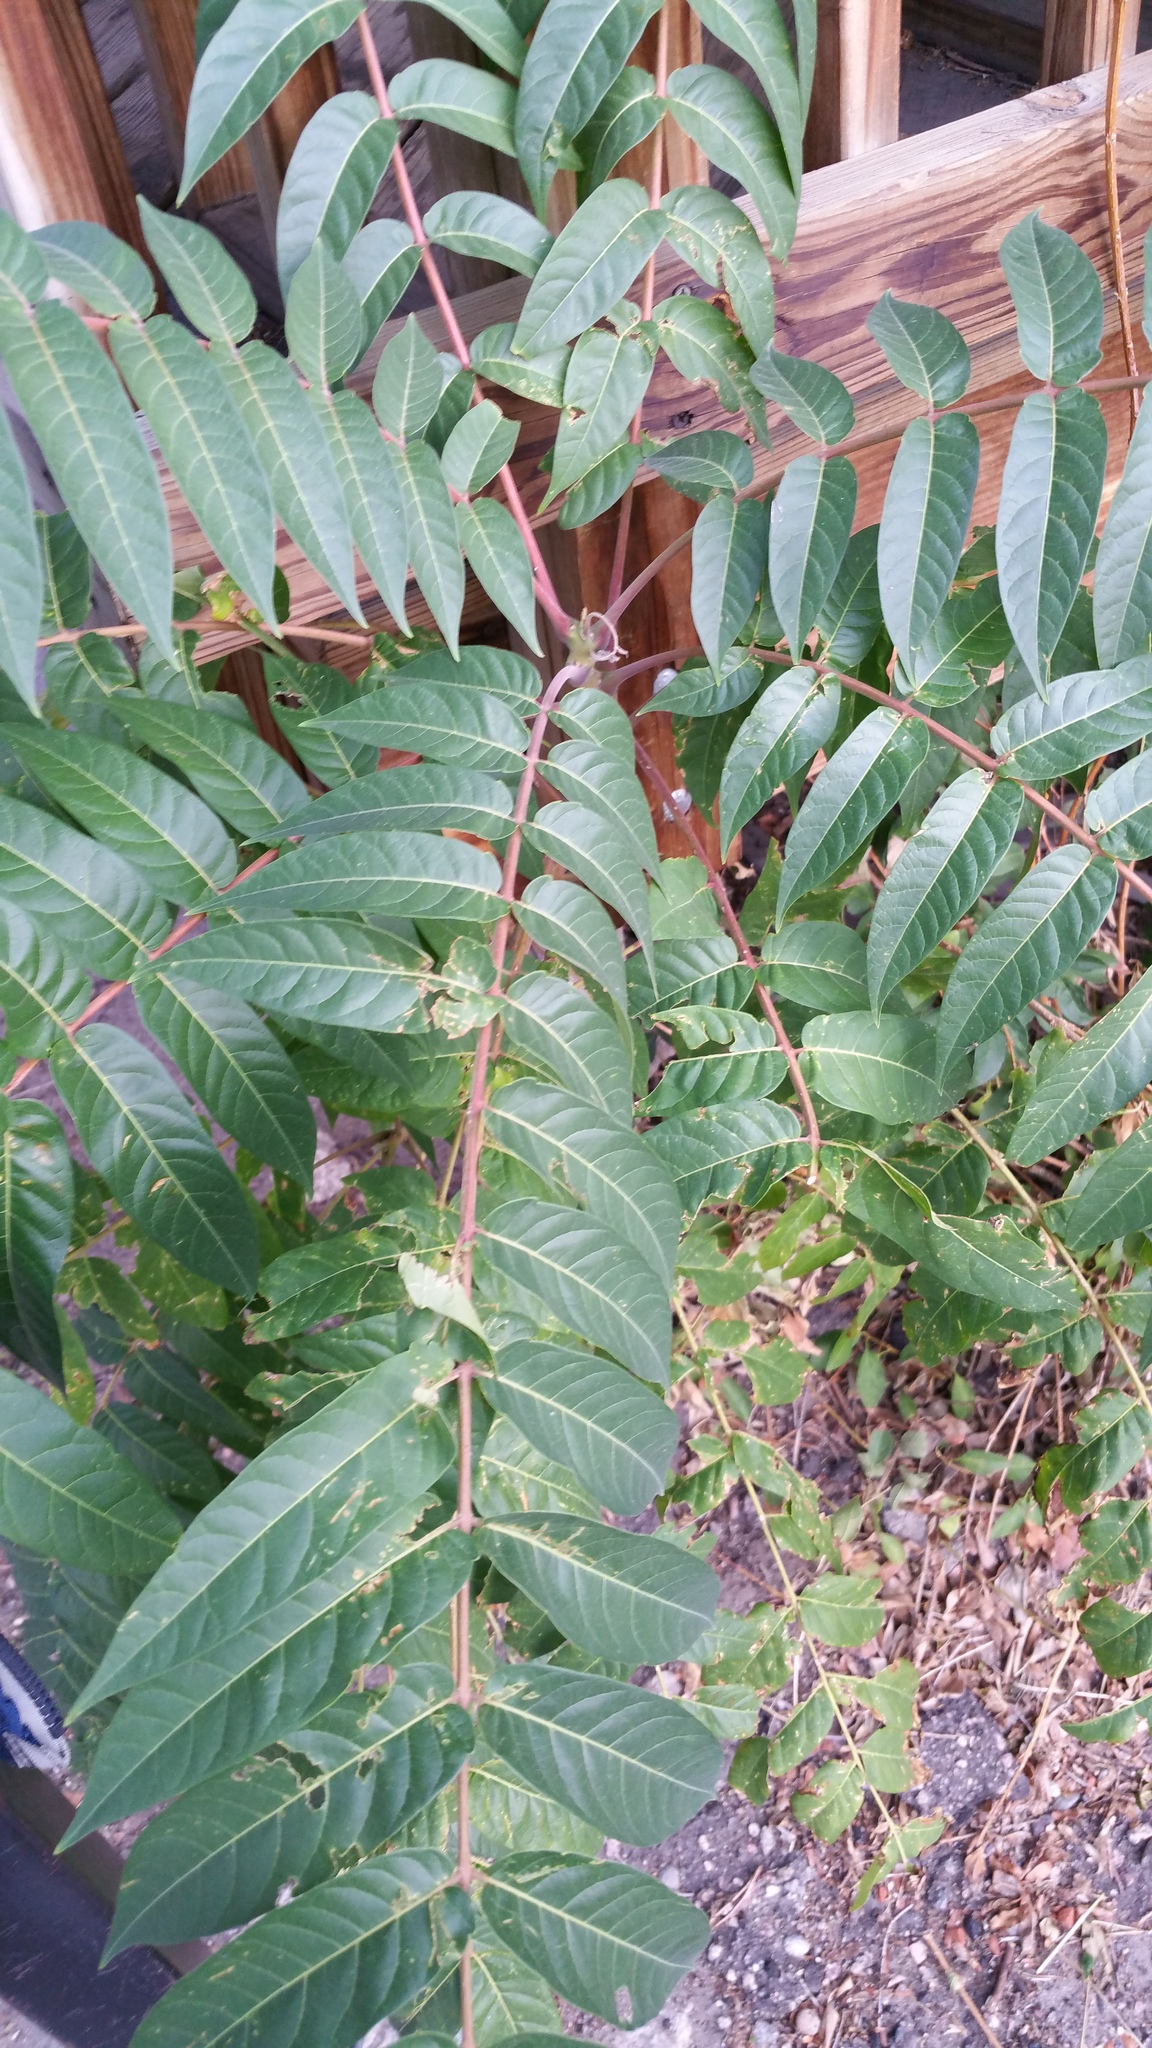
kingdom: Plantae
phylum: Tracheophyta
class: Magnoliopsida
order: Sapindales
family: Simaroubaceae
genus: Ailanthus
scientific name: Ailanthus altissima
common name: Tree-of-heaven
